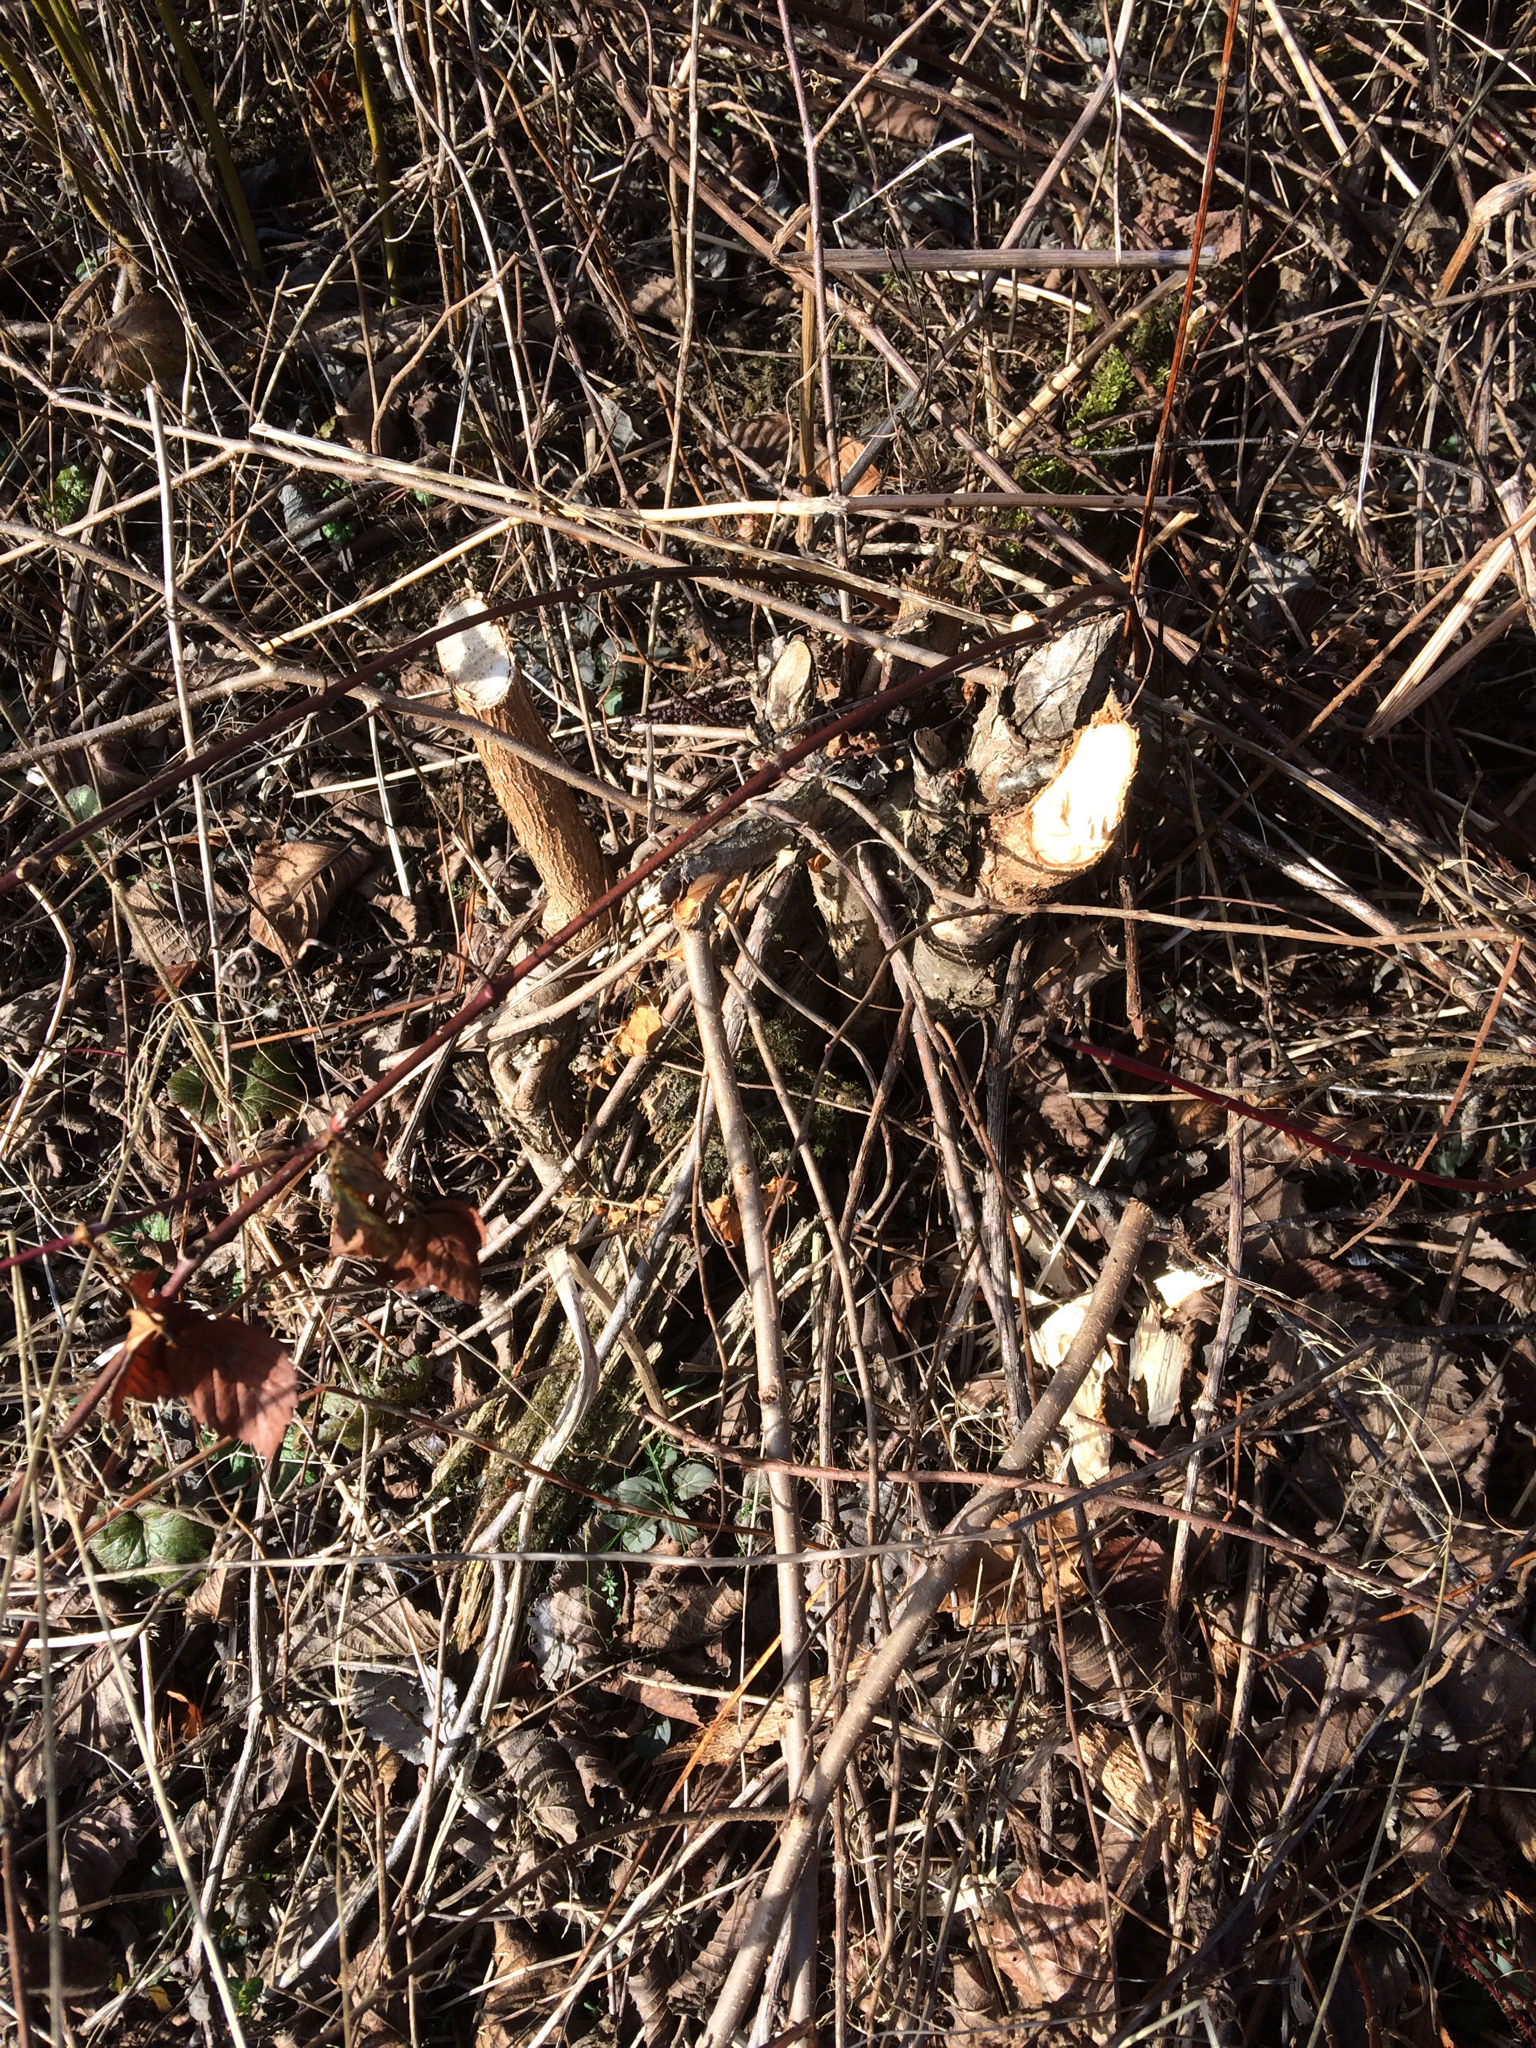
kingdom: Animalia
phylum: Chordata
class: Mammalia
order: Rodentia
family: Castoridae
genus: Castor
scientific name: Castor canadensis
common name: American beaver
